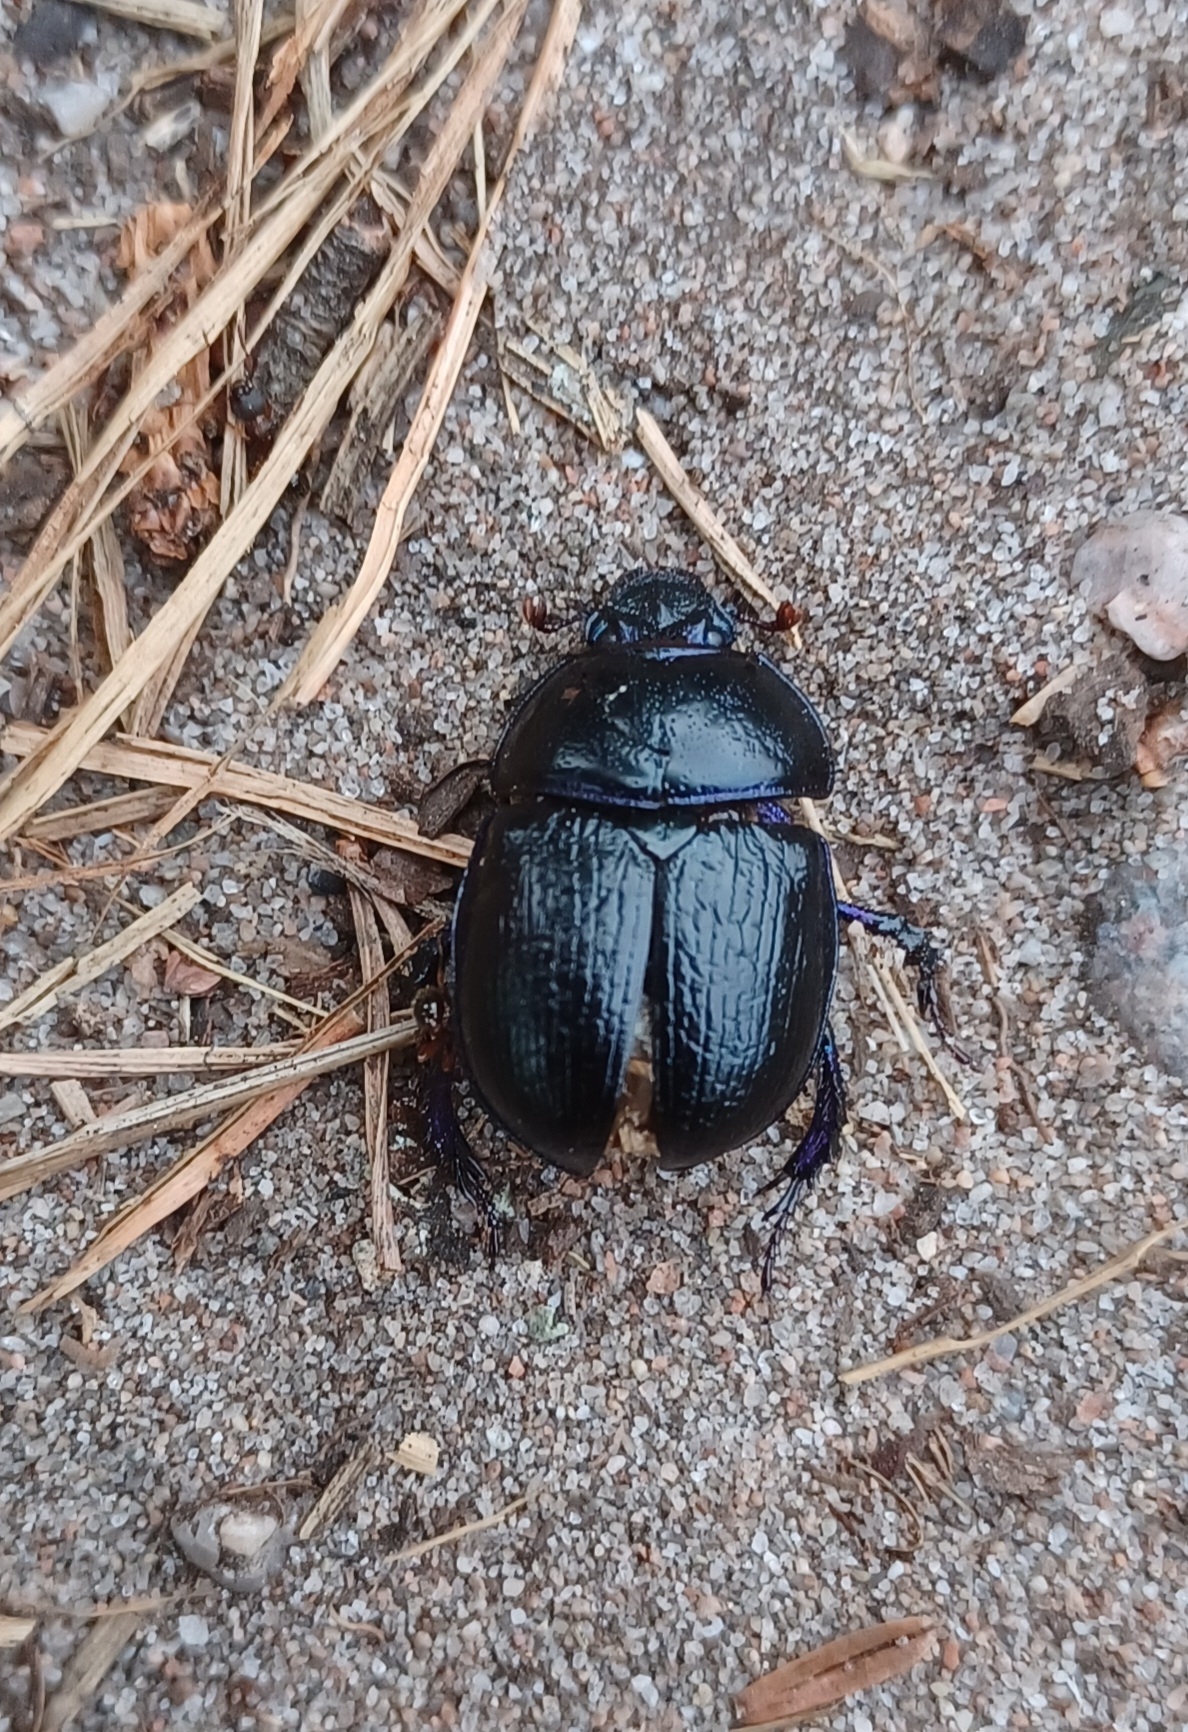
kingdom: Animalia
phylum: Arthropoda
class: Insecta
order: Coleoptera
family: Geotrupidae
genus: Anoplotrupes
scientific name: Anoplotrupes stercorosus
